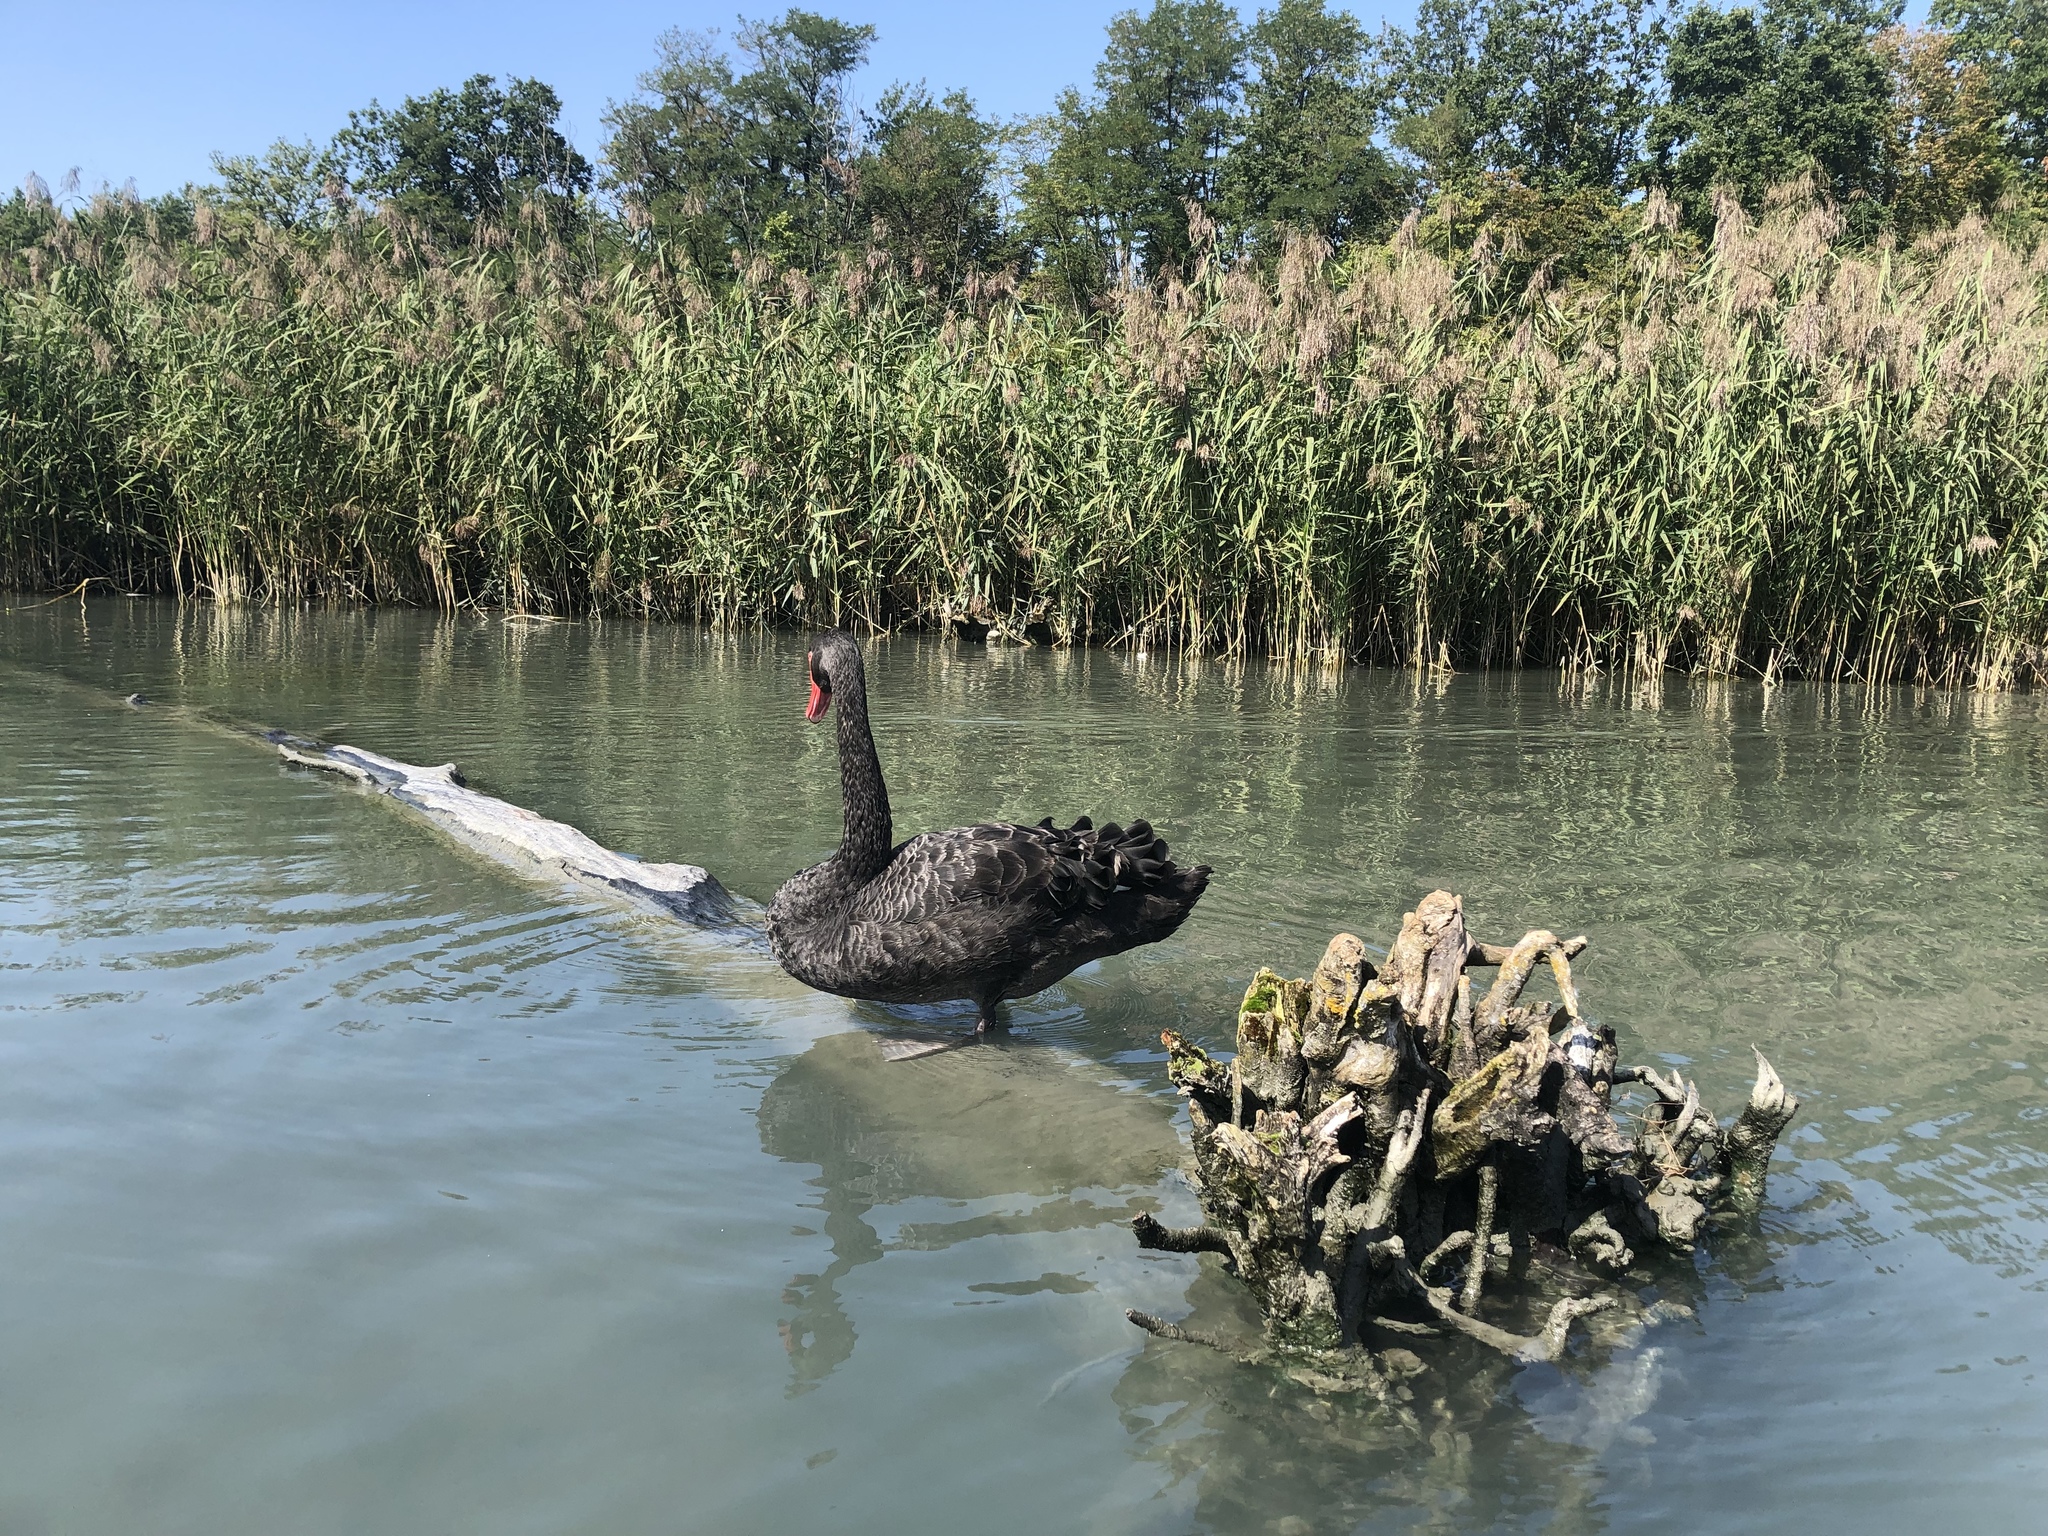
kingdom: Animalia
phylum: Chordata
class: Aves
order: Anseriformes
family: Anatidae
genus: Cygnus
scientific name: Cygnus atratus
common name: Black swan
